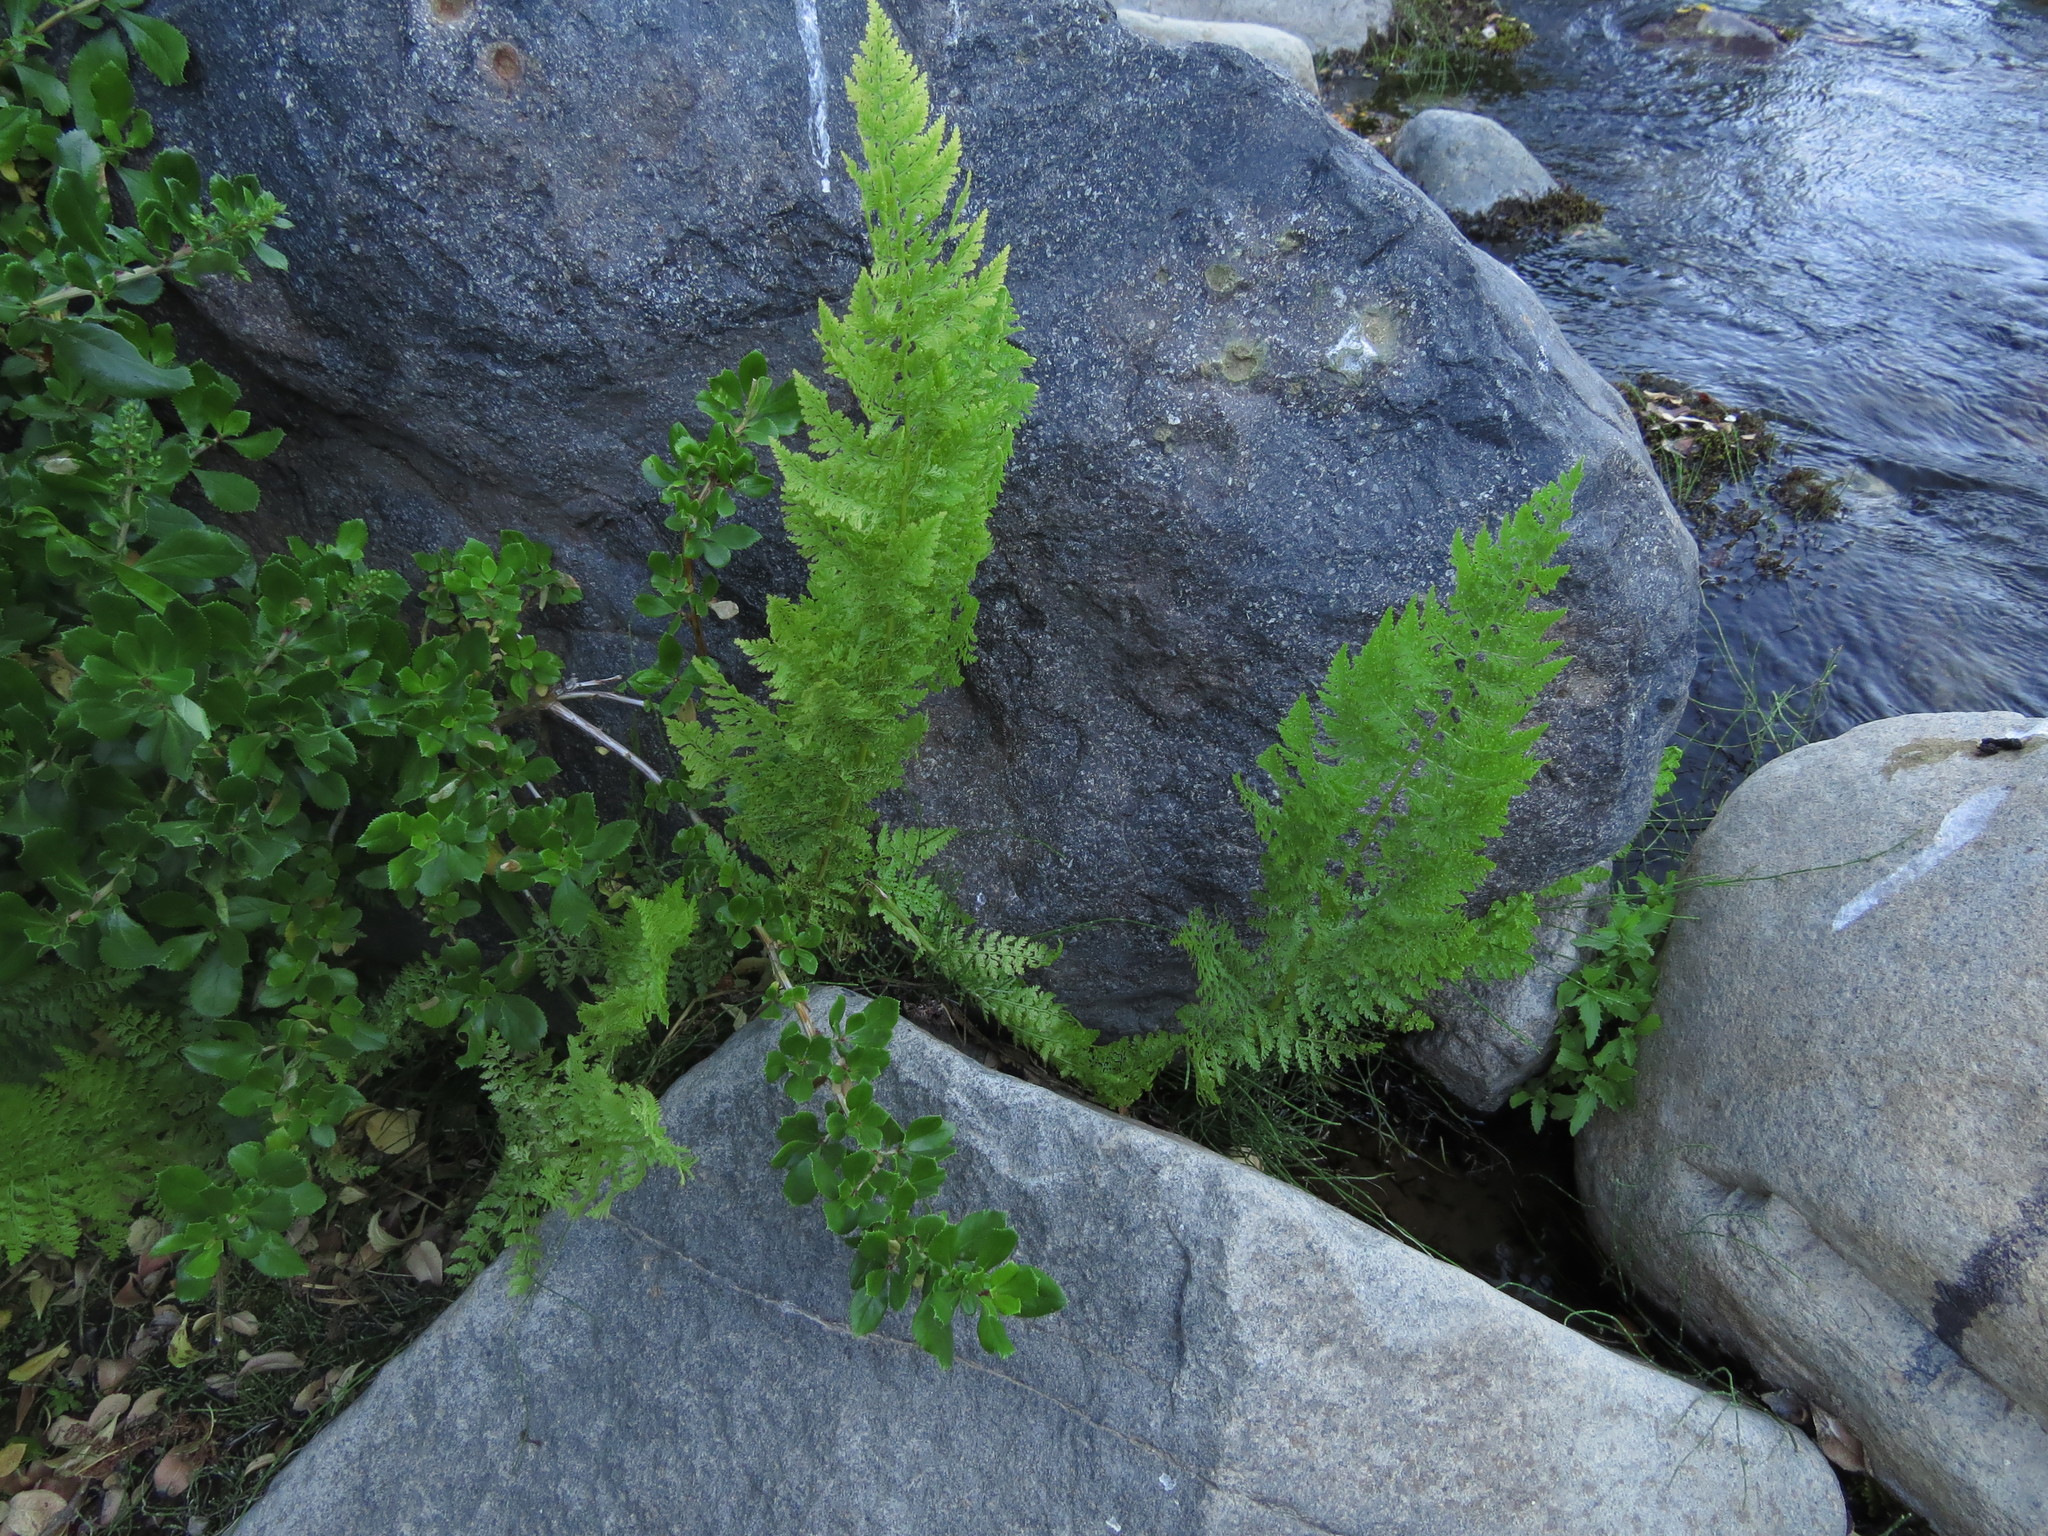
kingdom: Plantae
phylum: Tracheophyta
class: Polypodiopsida
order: Polypodiales
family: Dennstaedtiaceae
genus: Dennstaedtia
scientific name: Dennstaedtia glauca
